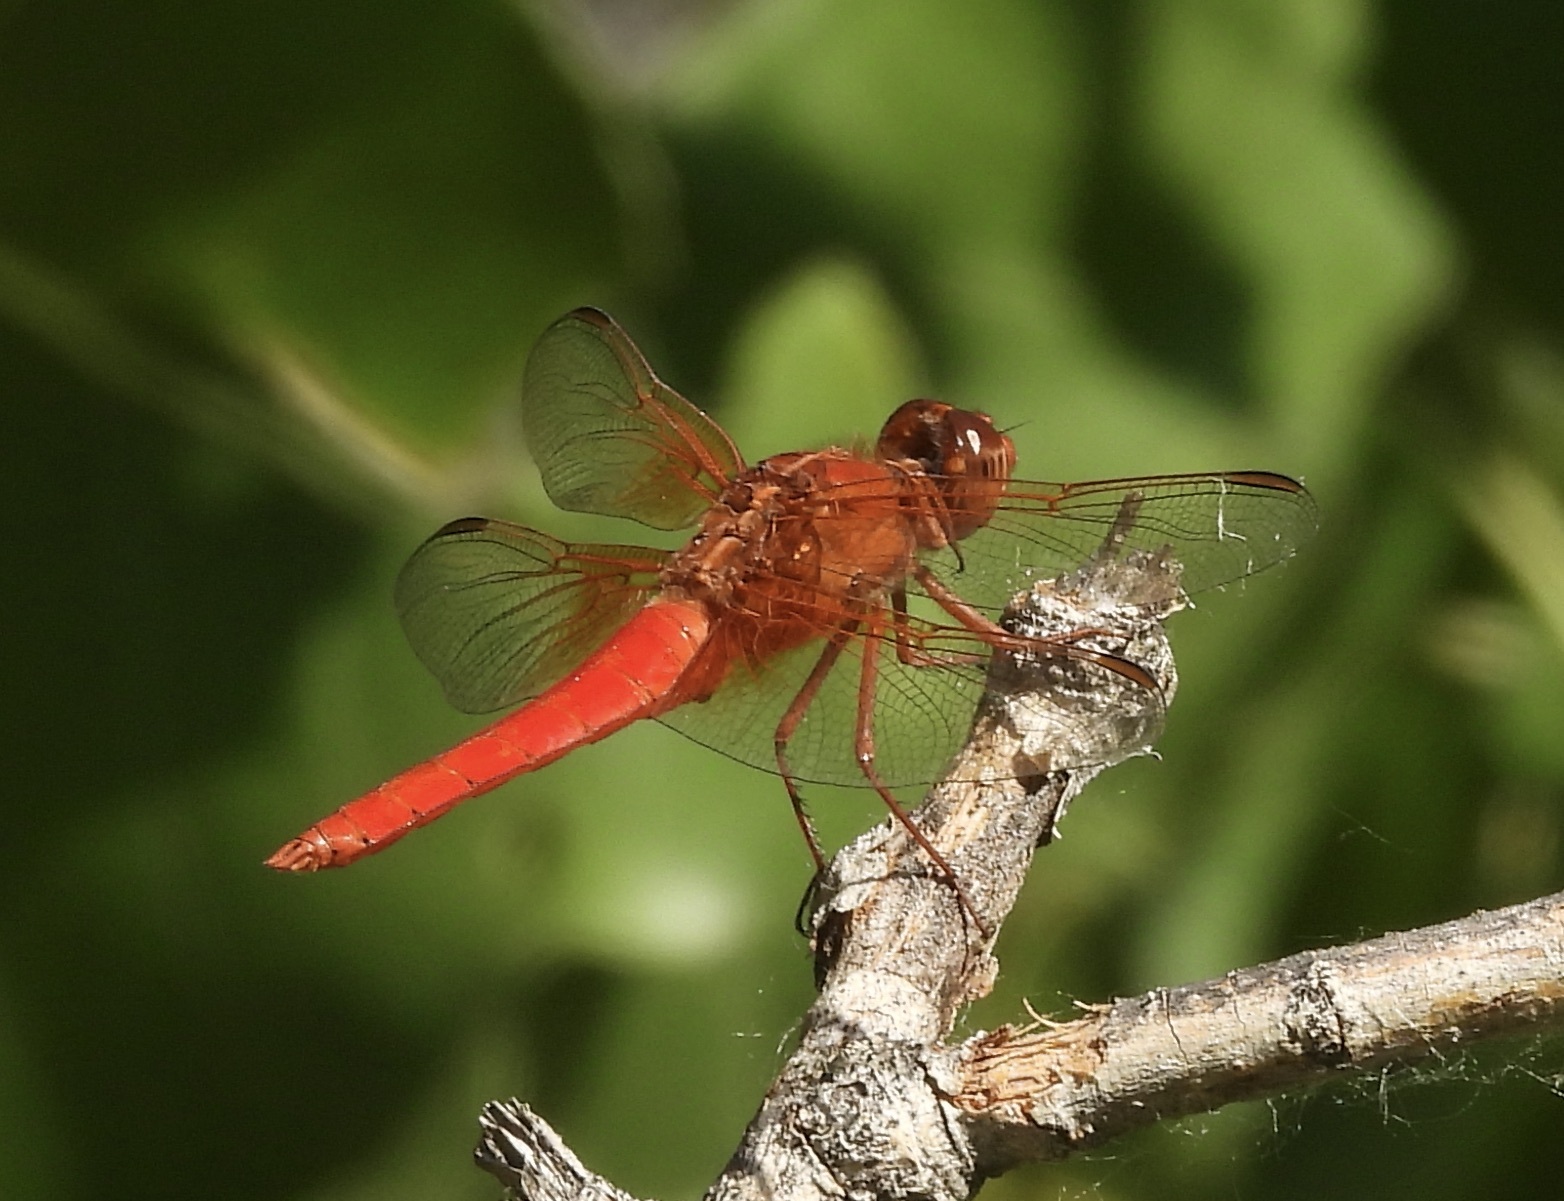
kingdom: Animalia
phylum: Arthropoda
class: Insecta
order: Odonata
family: Libellulidae
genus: Libellula
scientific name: Libellula croceipennis
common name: Neon skimmer
